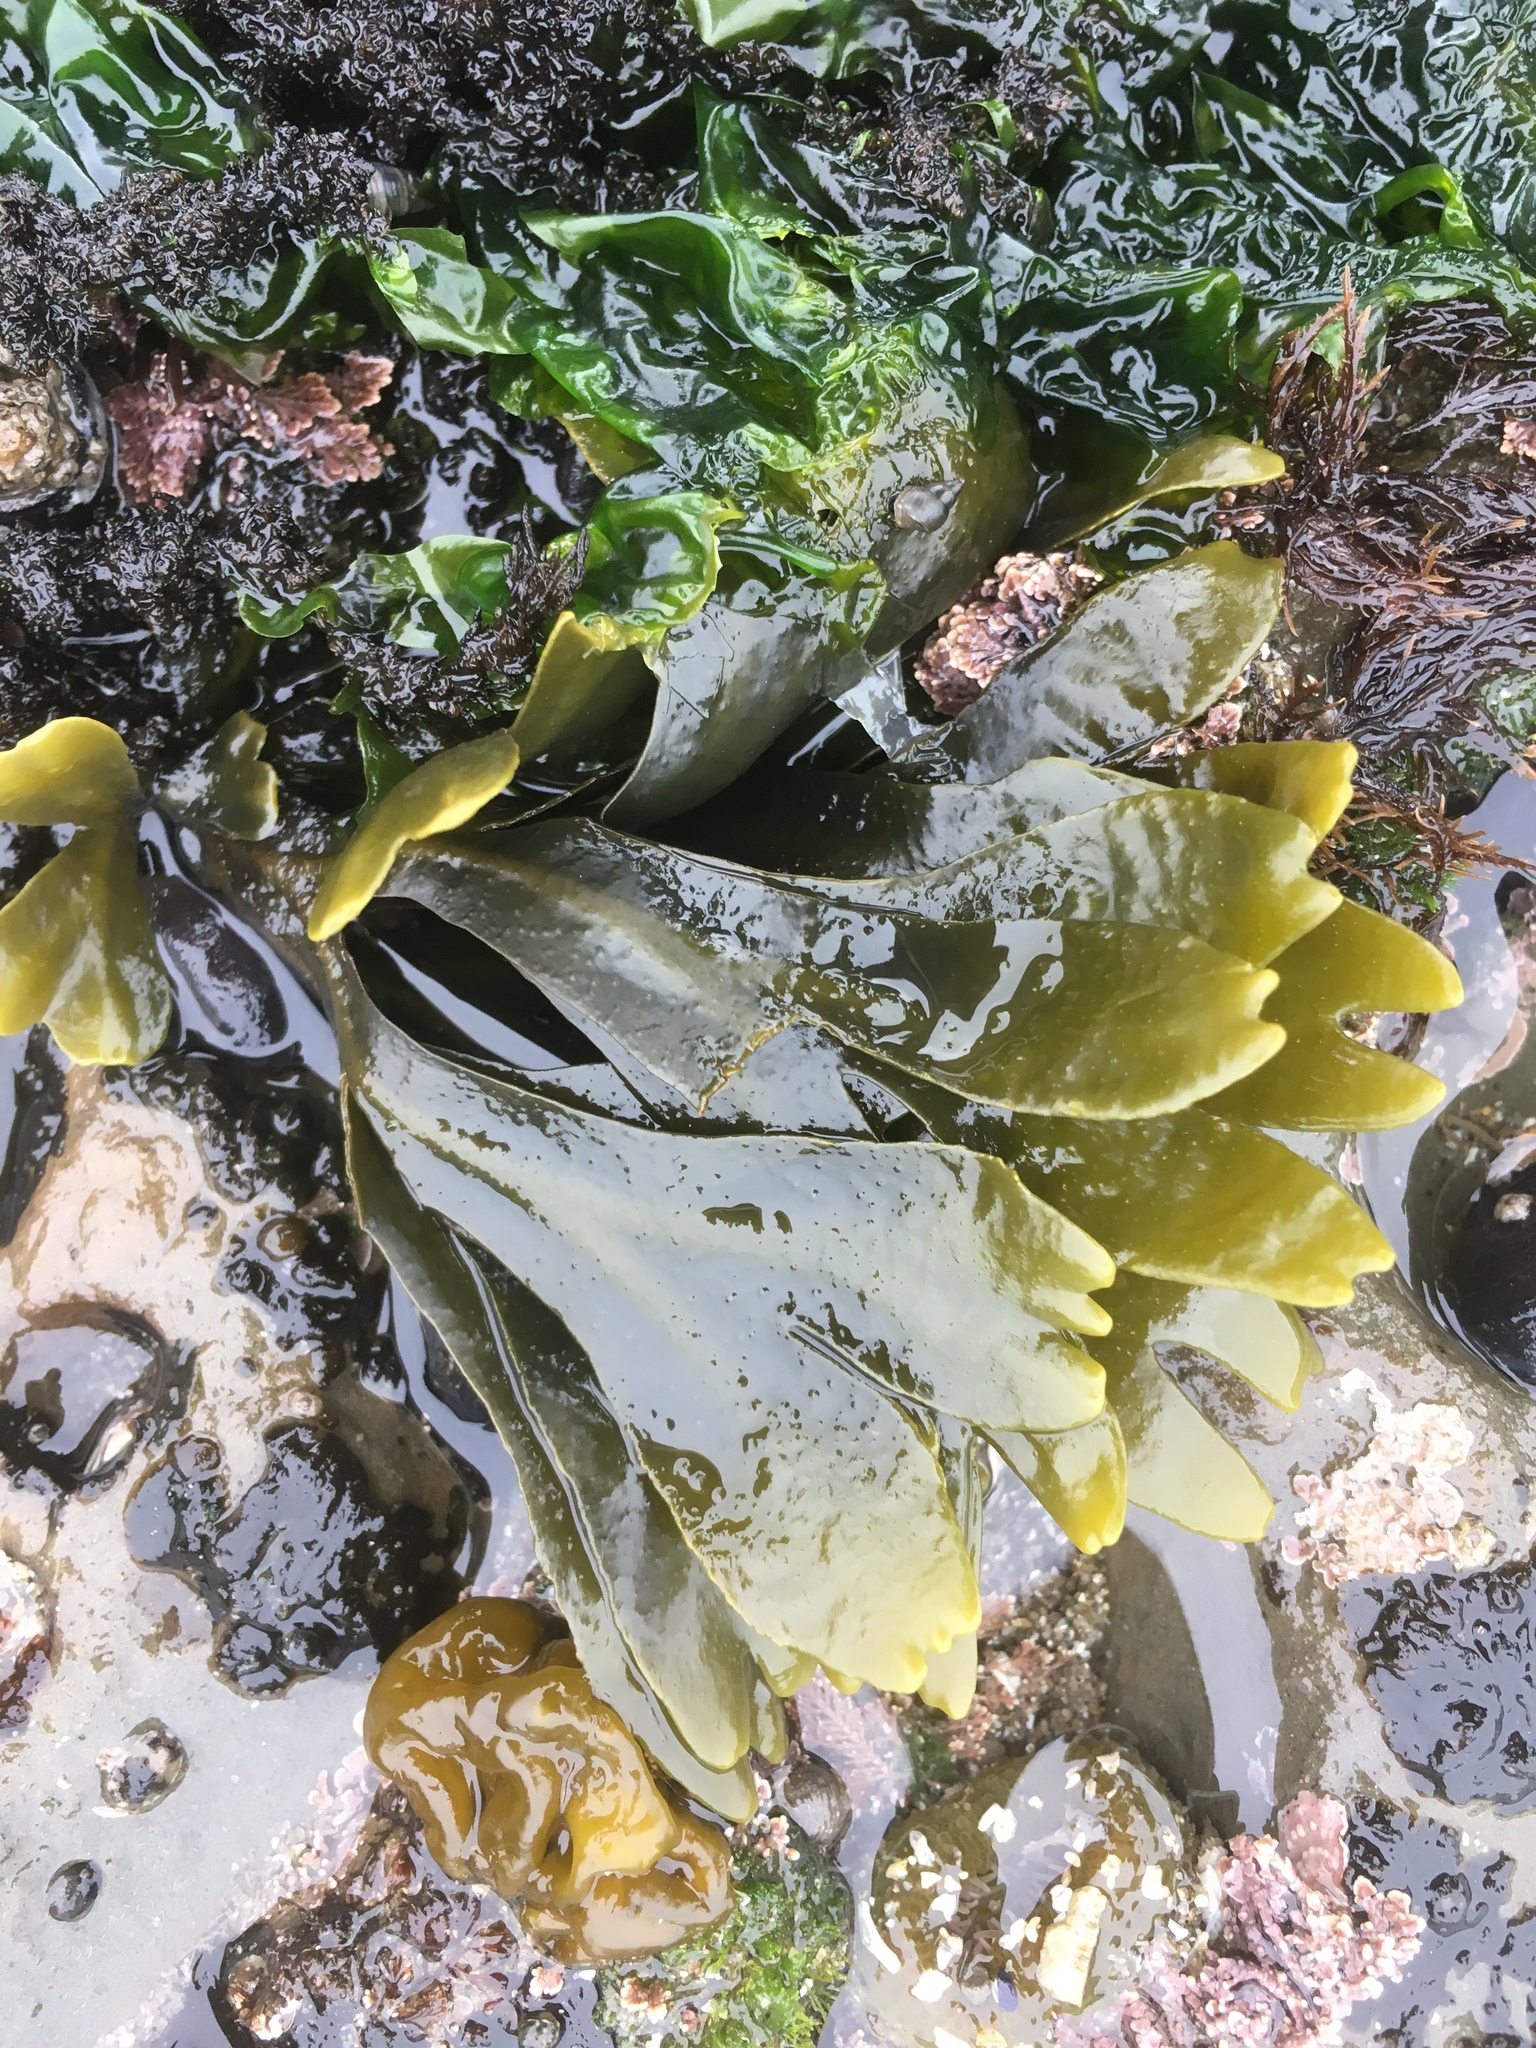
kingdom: Chromista
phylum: Ochrophyta
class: Phaeophyceae
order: Fucales
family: Fucaceae
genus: Fucus
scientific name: Fucus distichus
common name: Rockweed
